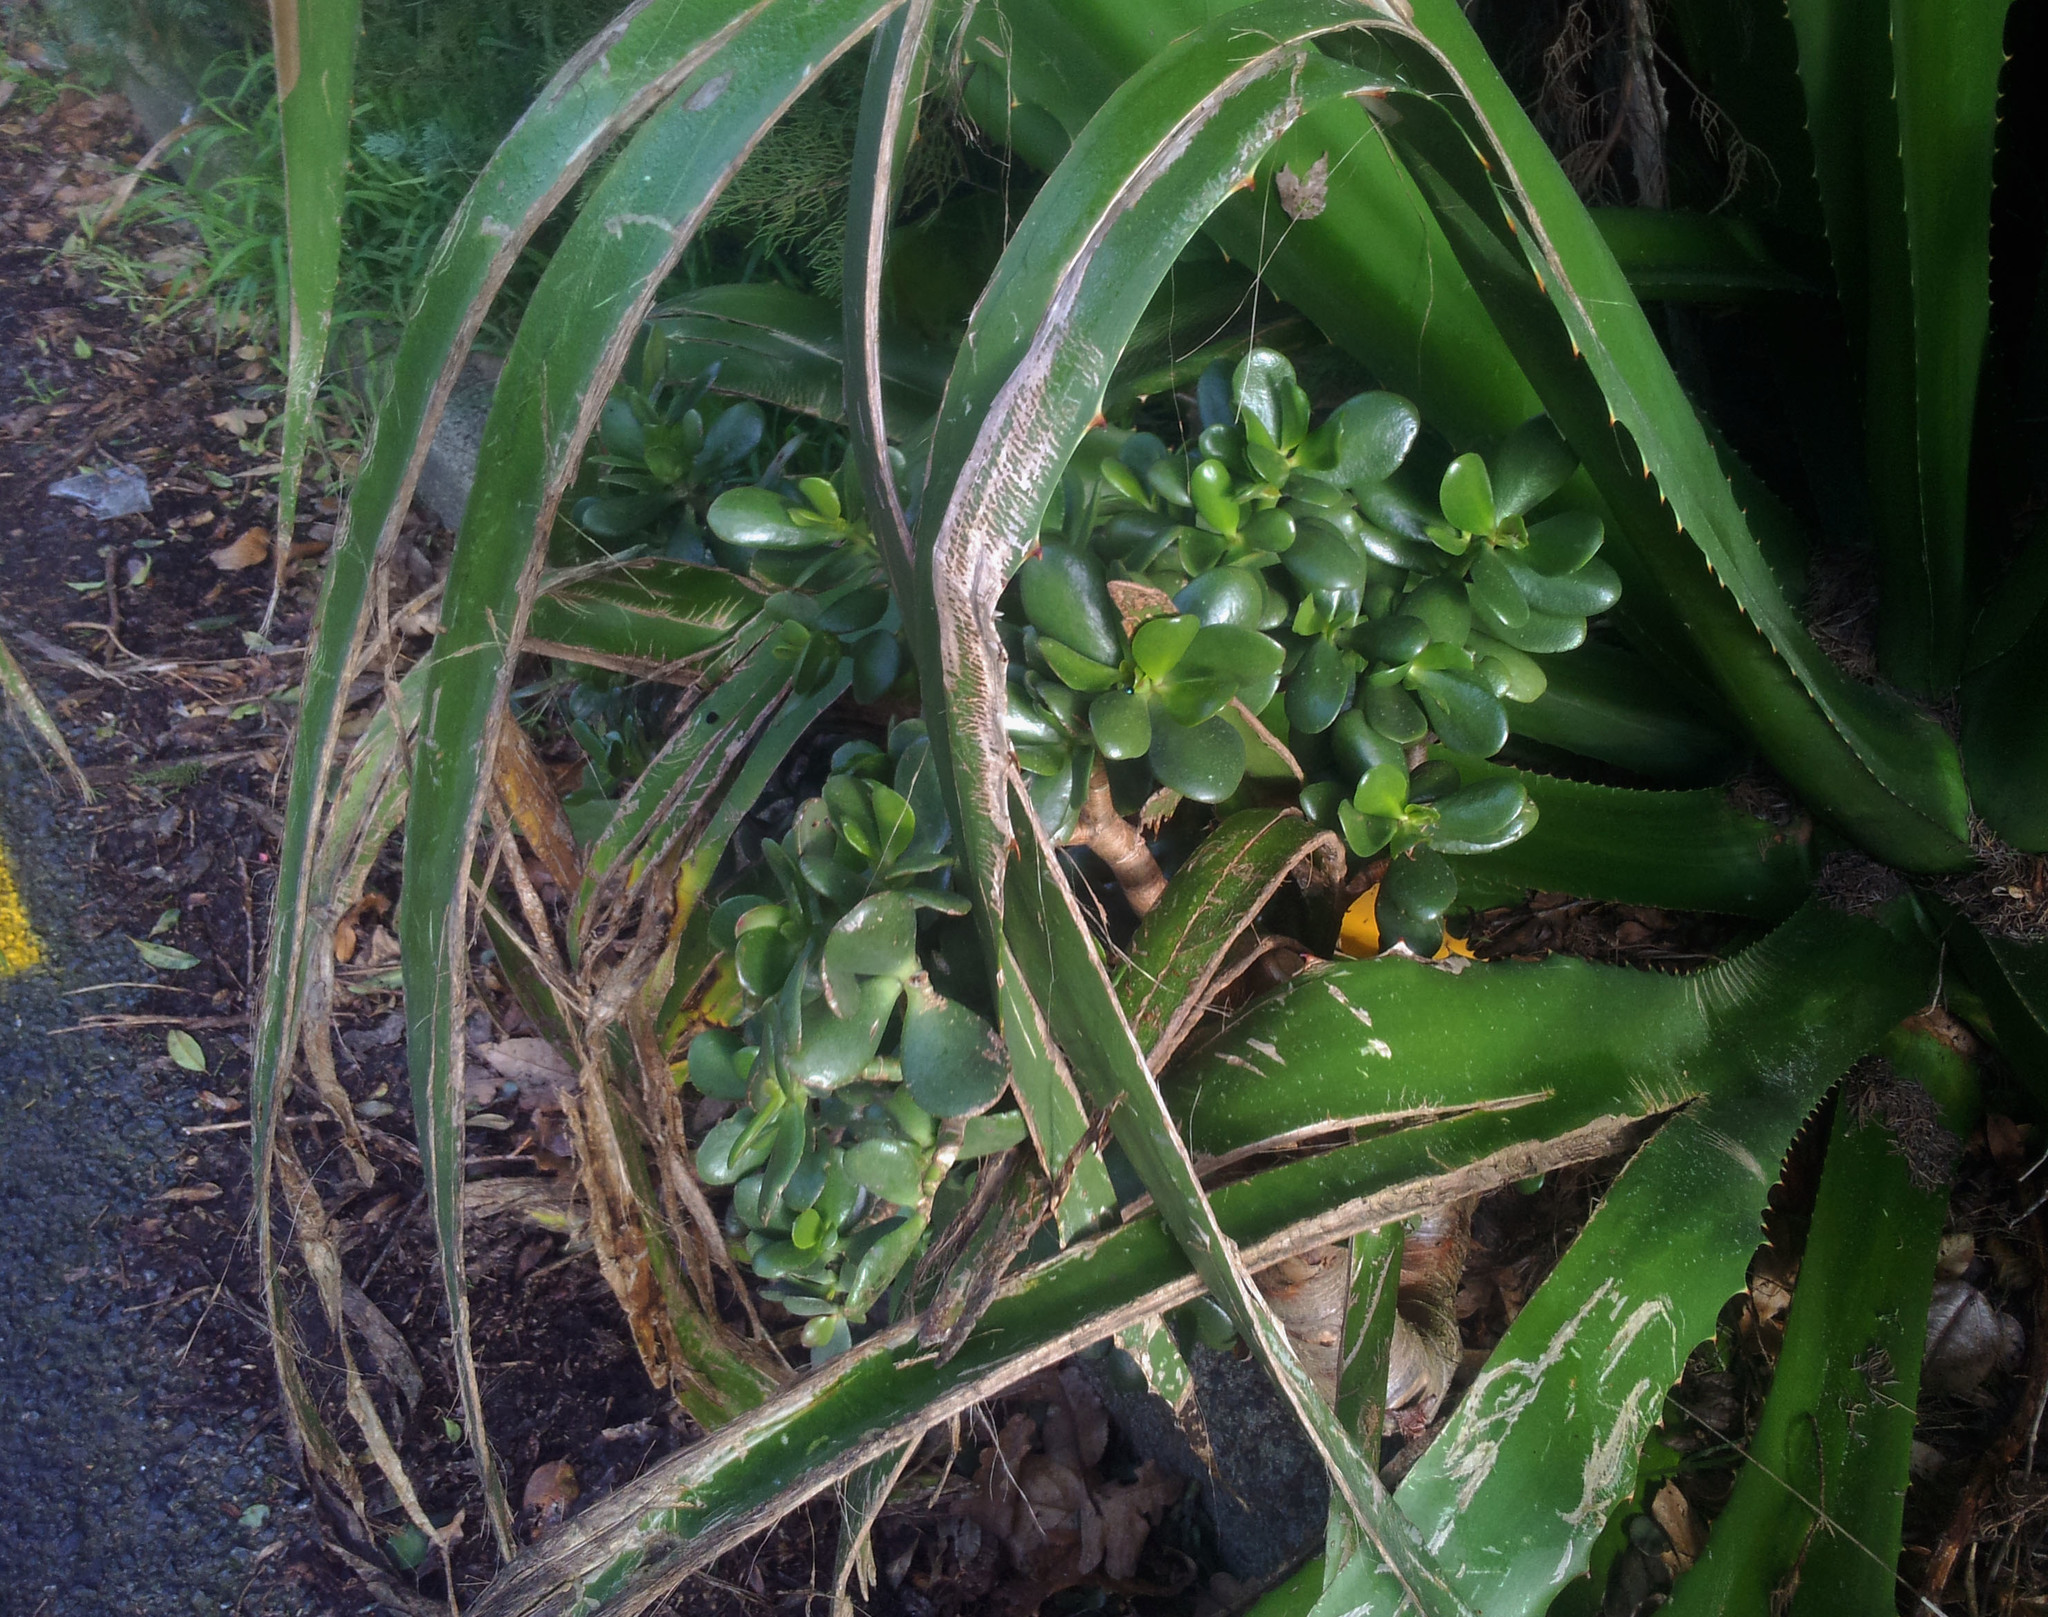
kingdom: Plantae
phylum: Tracheophyta
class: Magnoliopsida
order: Saxifragales
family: Crassulaceae
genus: Crassula
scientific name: Crassula ovata
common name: Jade plant
